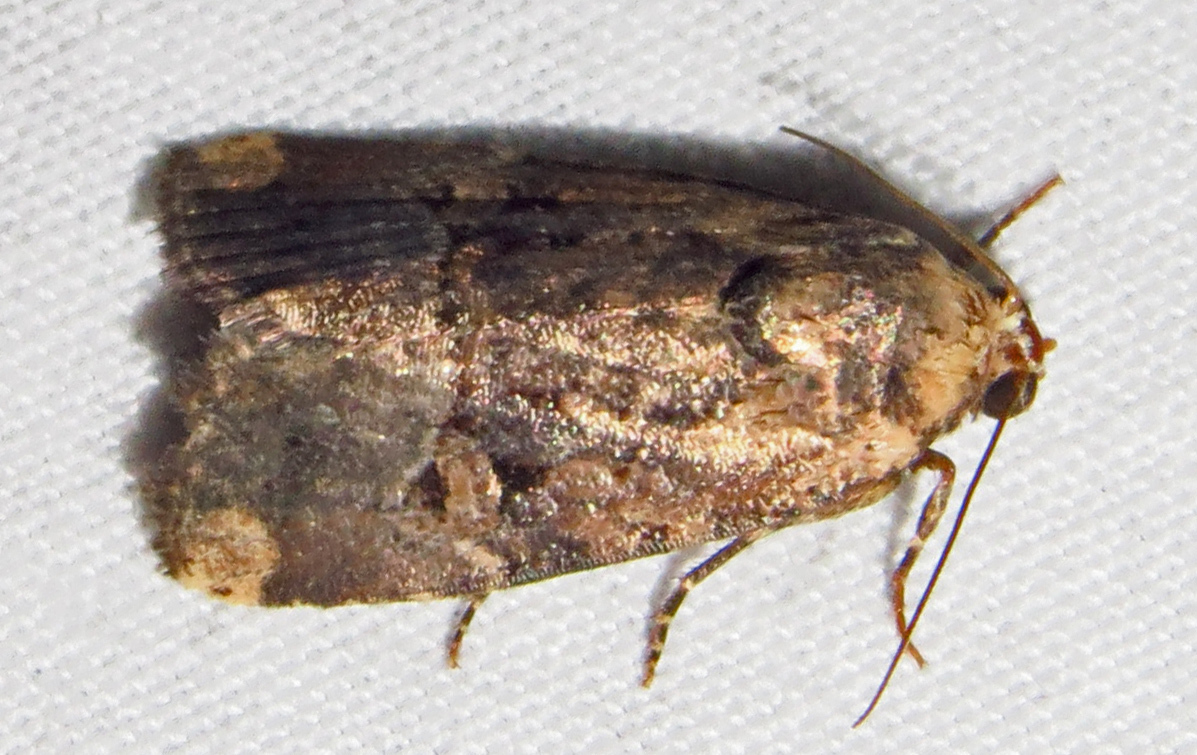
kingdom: Animalia
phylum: Arthropoda
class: Insecta
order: Lepidoptera
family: Noctuidae
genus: Elaphria
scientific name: Elaphria chalcedonia
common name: Chalcedony midget
